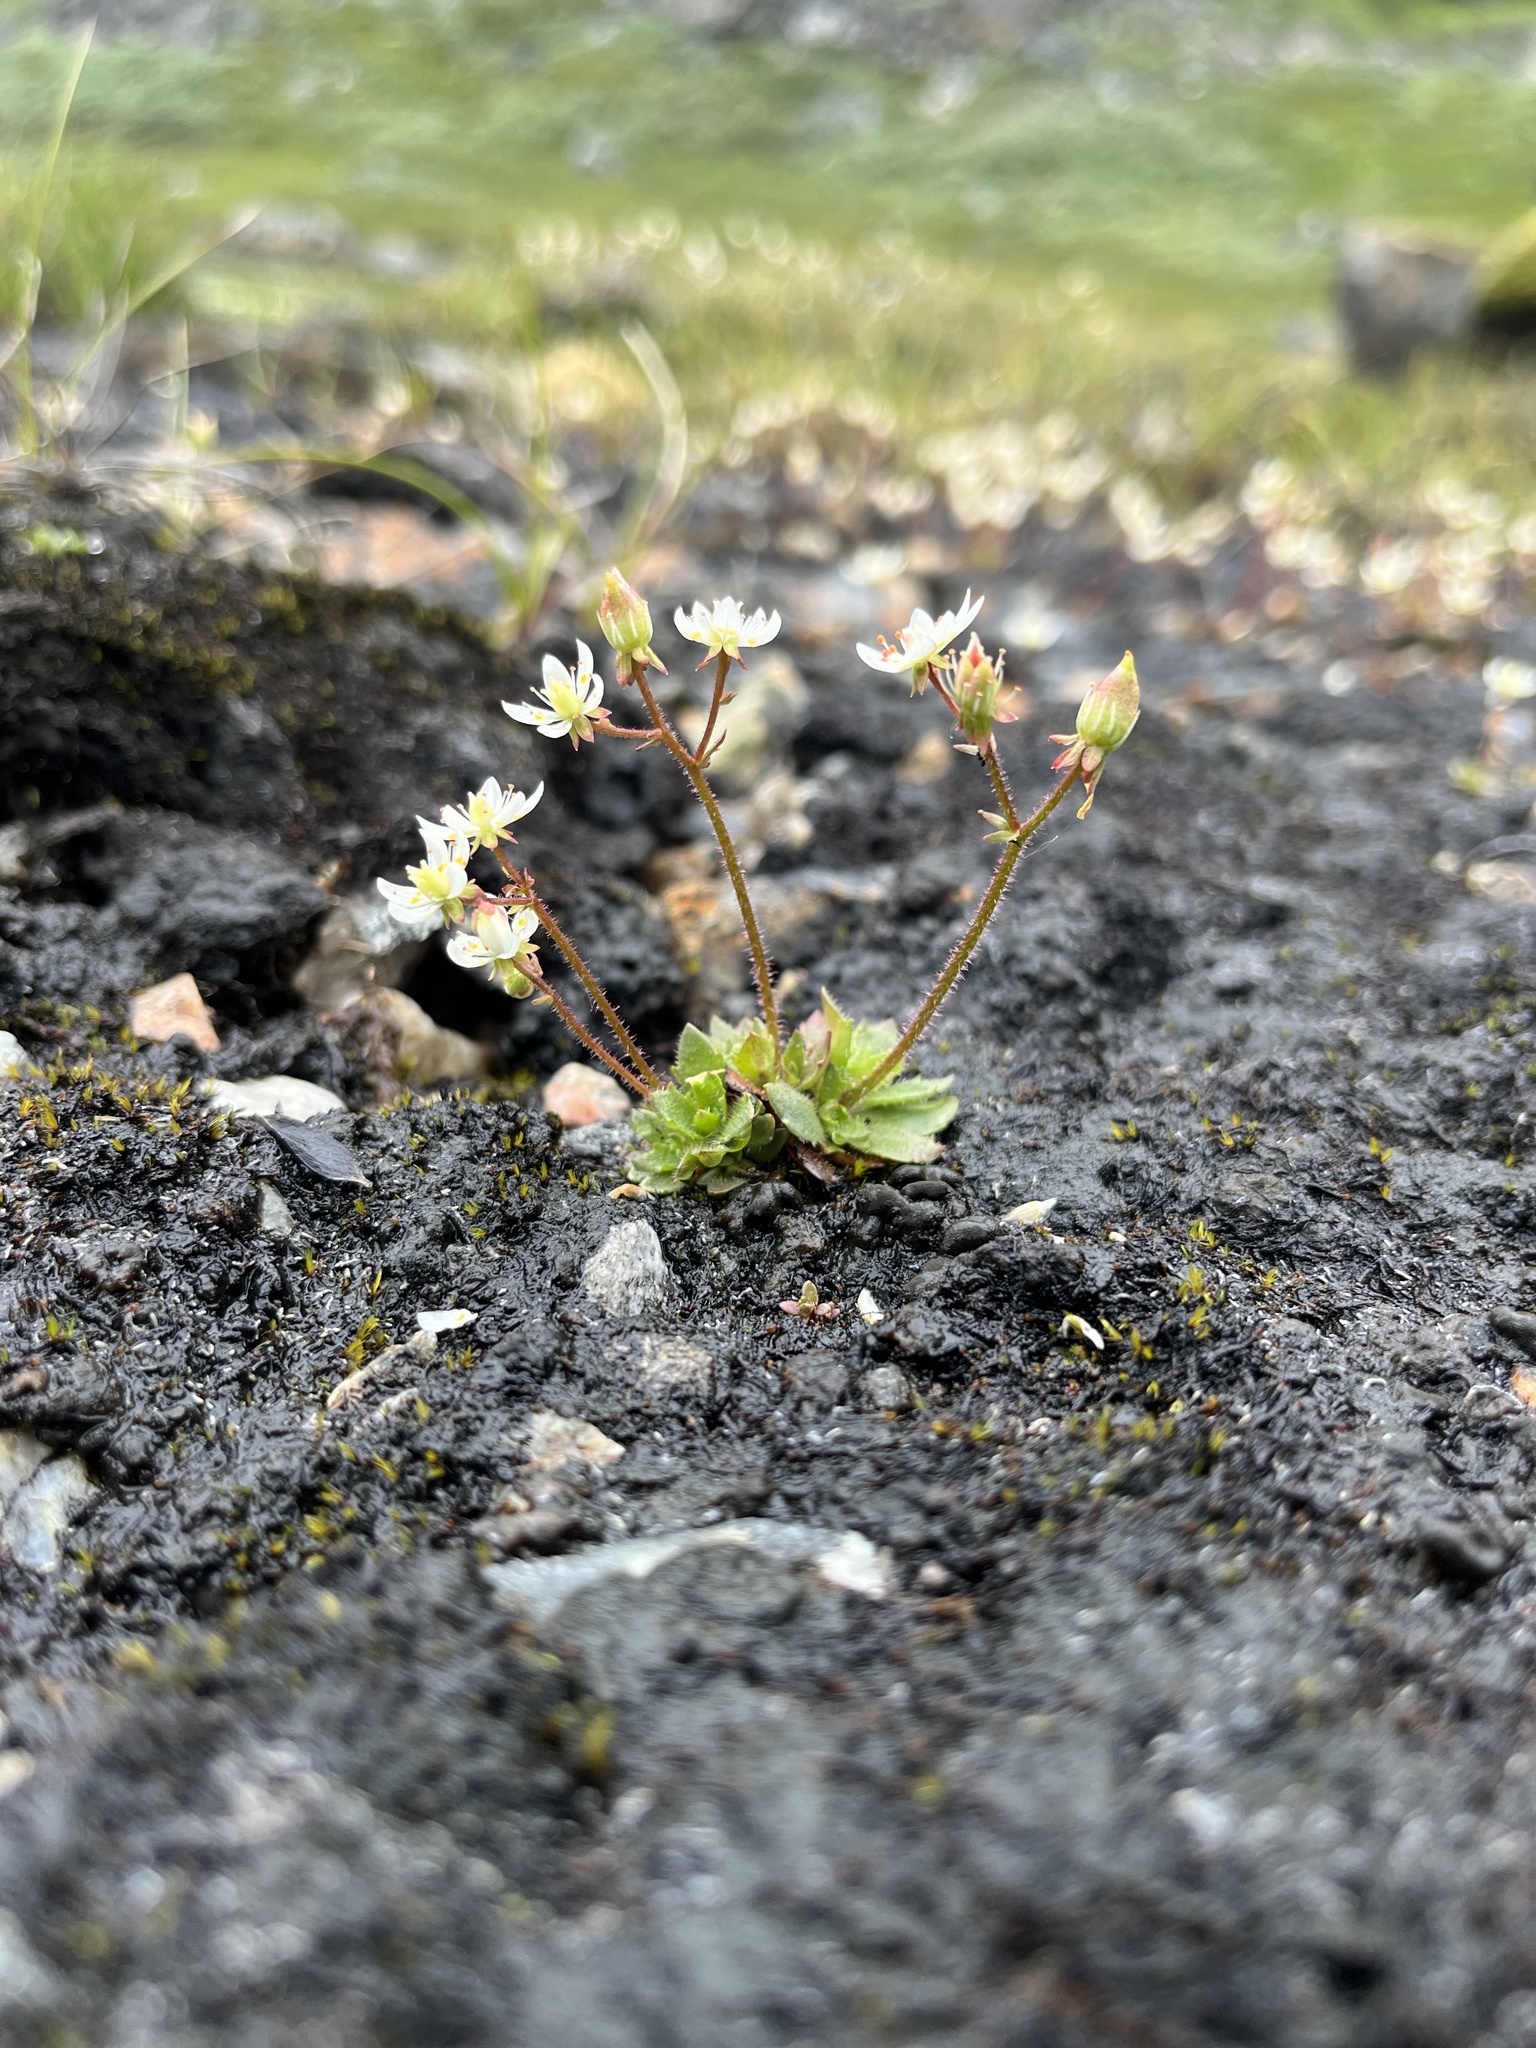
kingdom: Plantae
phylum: Tracheophyta
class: Magnoliopsida
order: Saxifragales
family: Saxifragaceae
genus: Micranthes
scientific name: Micranthes stellaris
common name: Starry saxifrage
